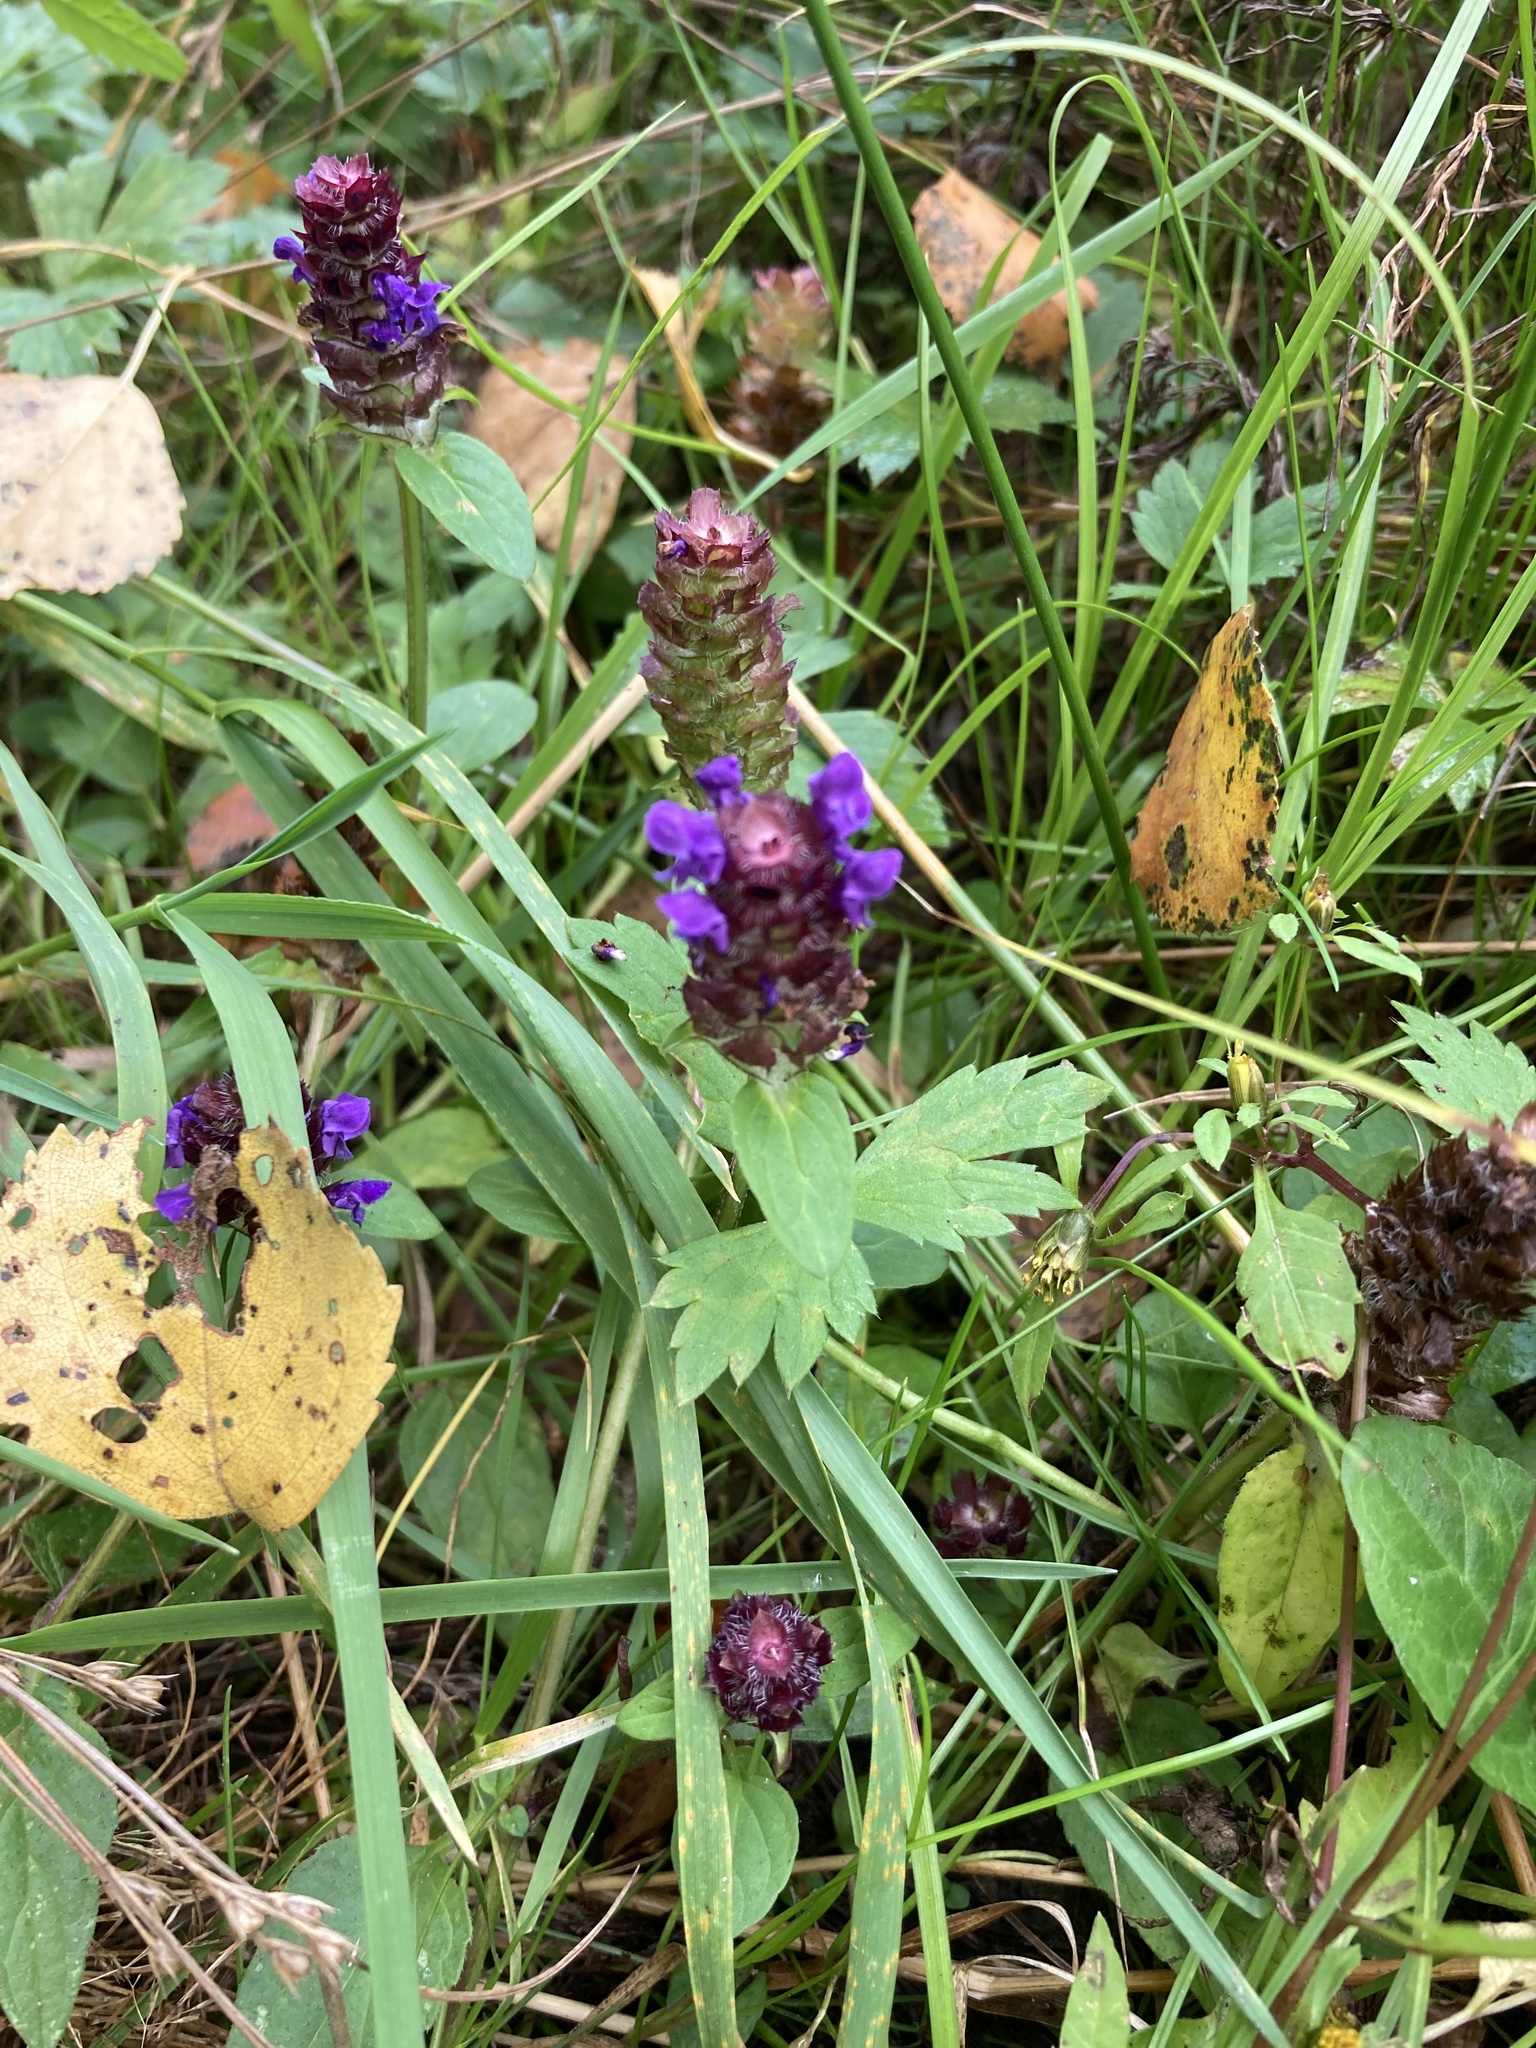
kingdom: Plantae
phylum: Tracheophyta
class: Magnoliopsida
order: Lamiales
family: Lamiaceae
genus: Prunella
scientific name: Prunella vulgaris
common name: Heal-all
